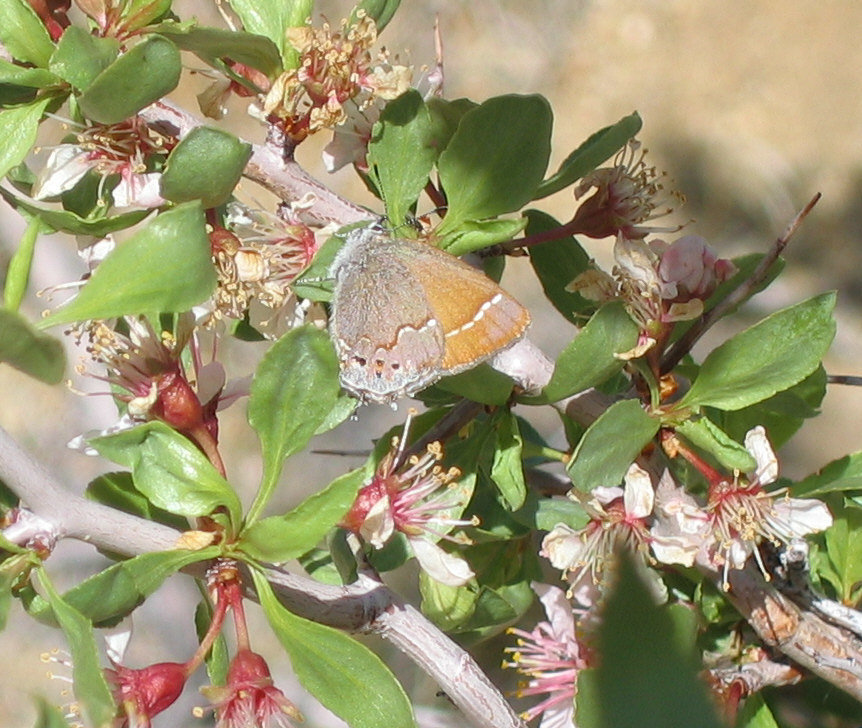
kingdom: Animalia
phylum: Arthropoda
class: Insecta
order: Lepidoptera
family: Lycaenidae
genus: Mitoura
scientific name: Mitoura gryneus
